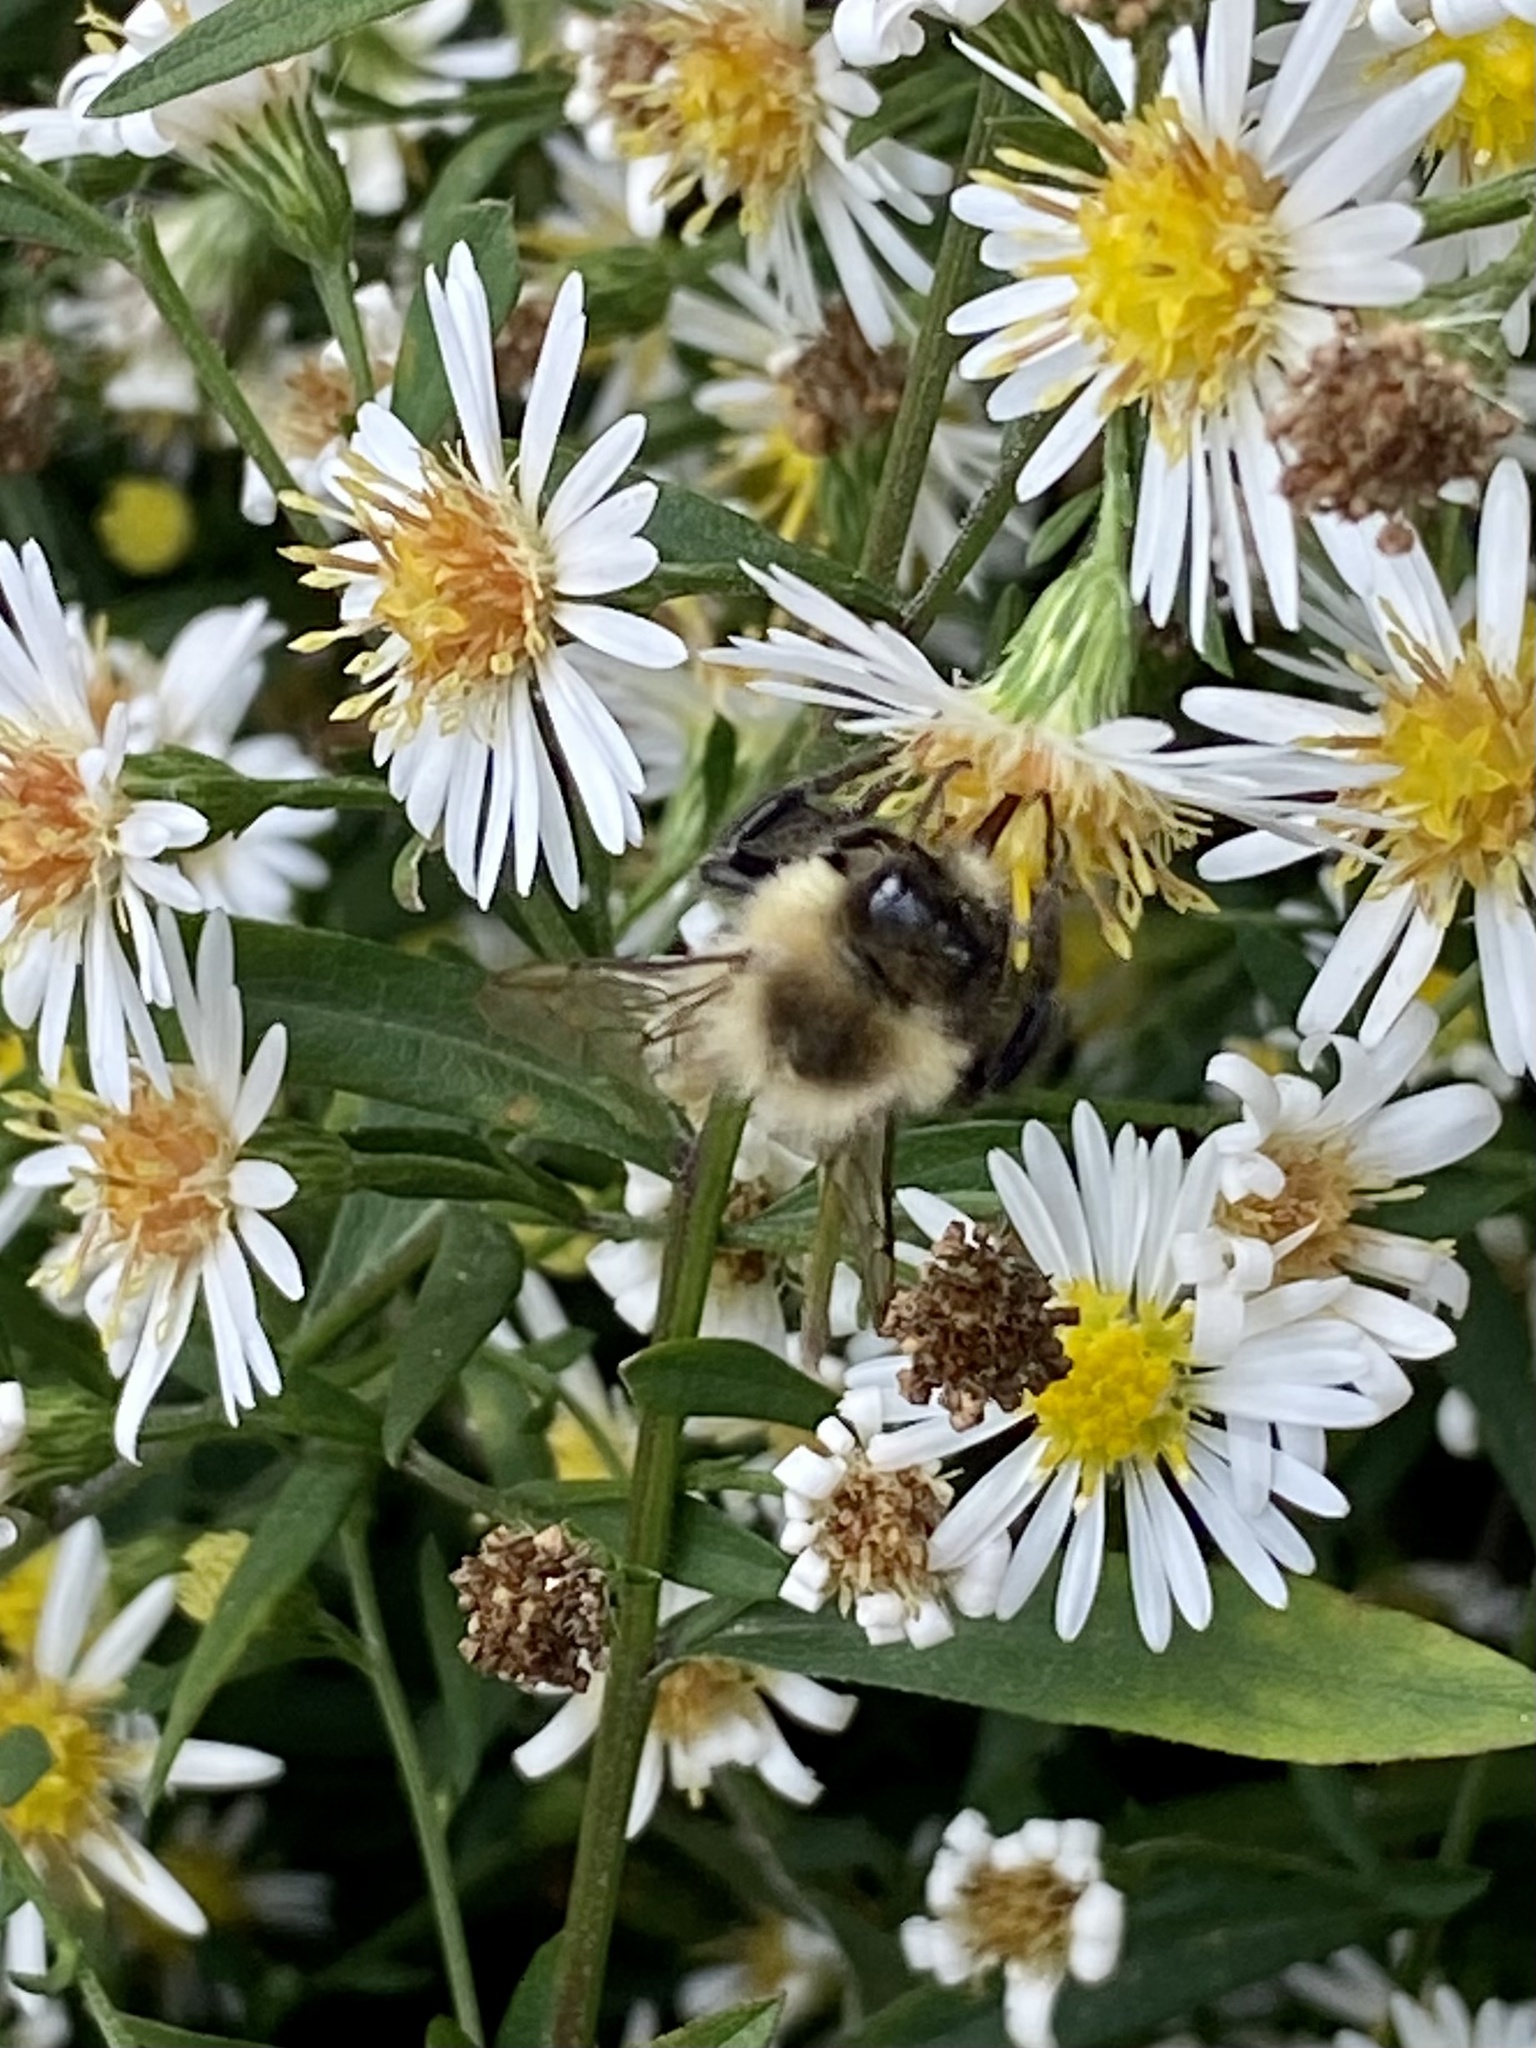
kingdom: Animalia
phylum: Arthropoda
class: Insecta
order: Hymenoptera
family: Apidae
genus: Bombus
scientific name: Bombus impatiens
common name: Common eastern bumble bee
